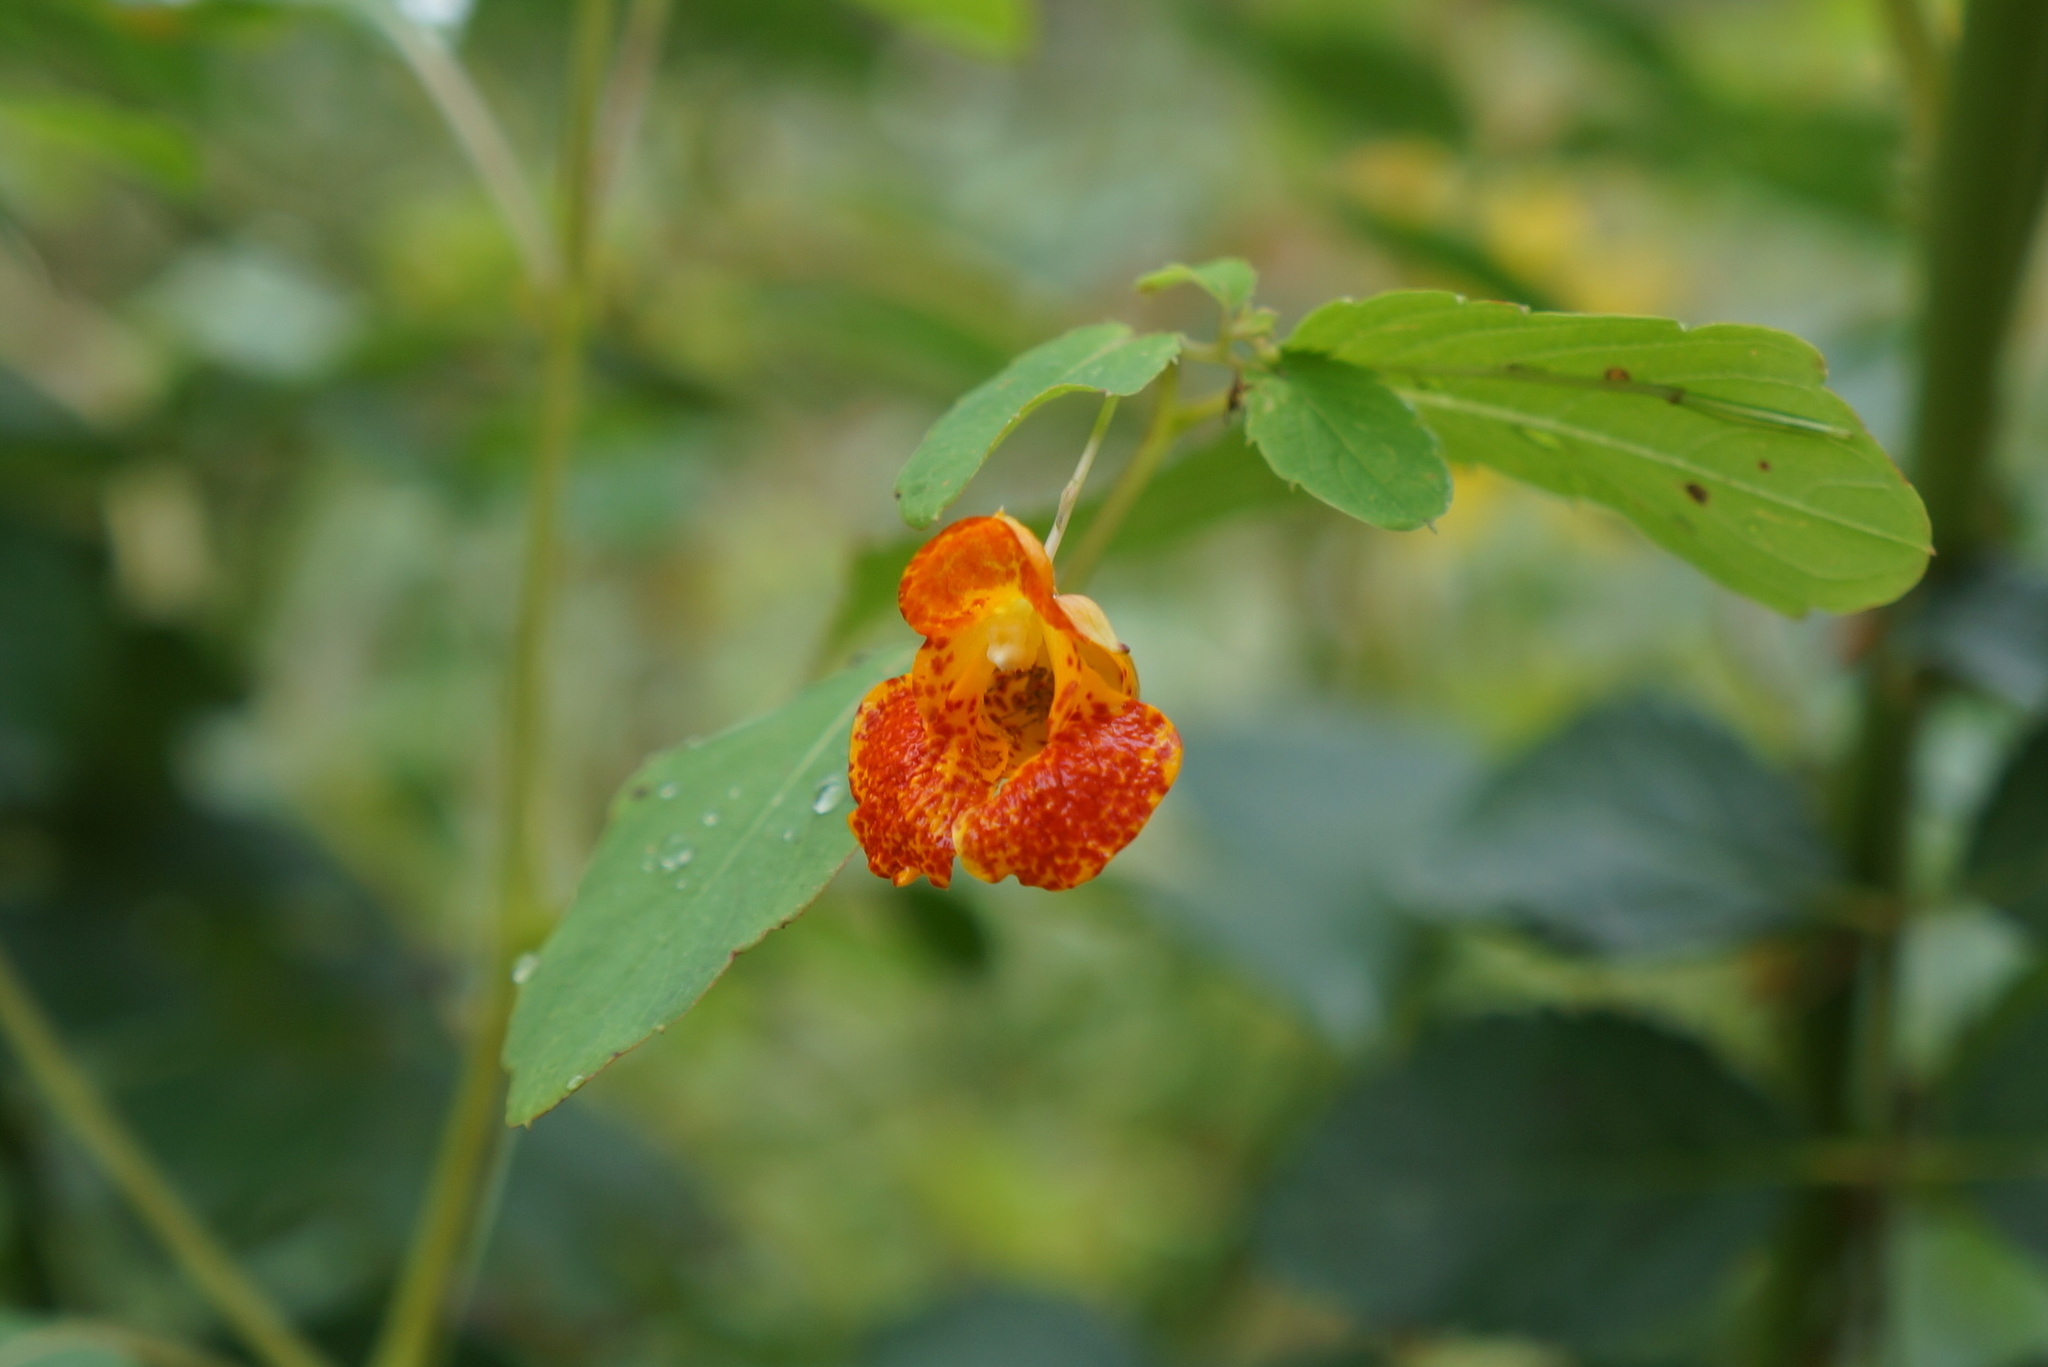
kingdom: Plantae
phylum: Tracheophyta
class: Magnoliopsida
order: Ericales
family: Balsaminaceae
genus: Impatiens
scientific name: Impatiens capensis
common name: Orange balsam
